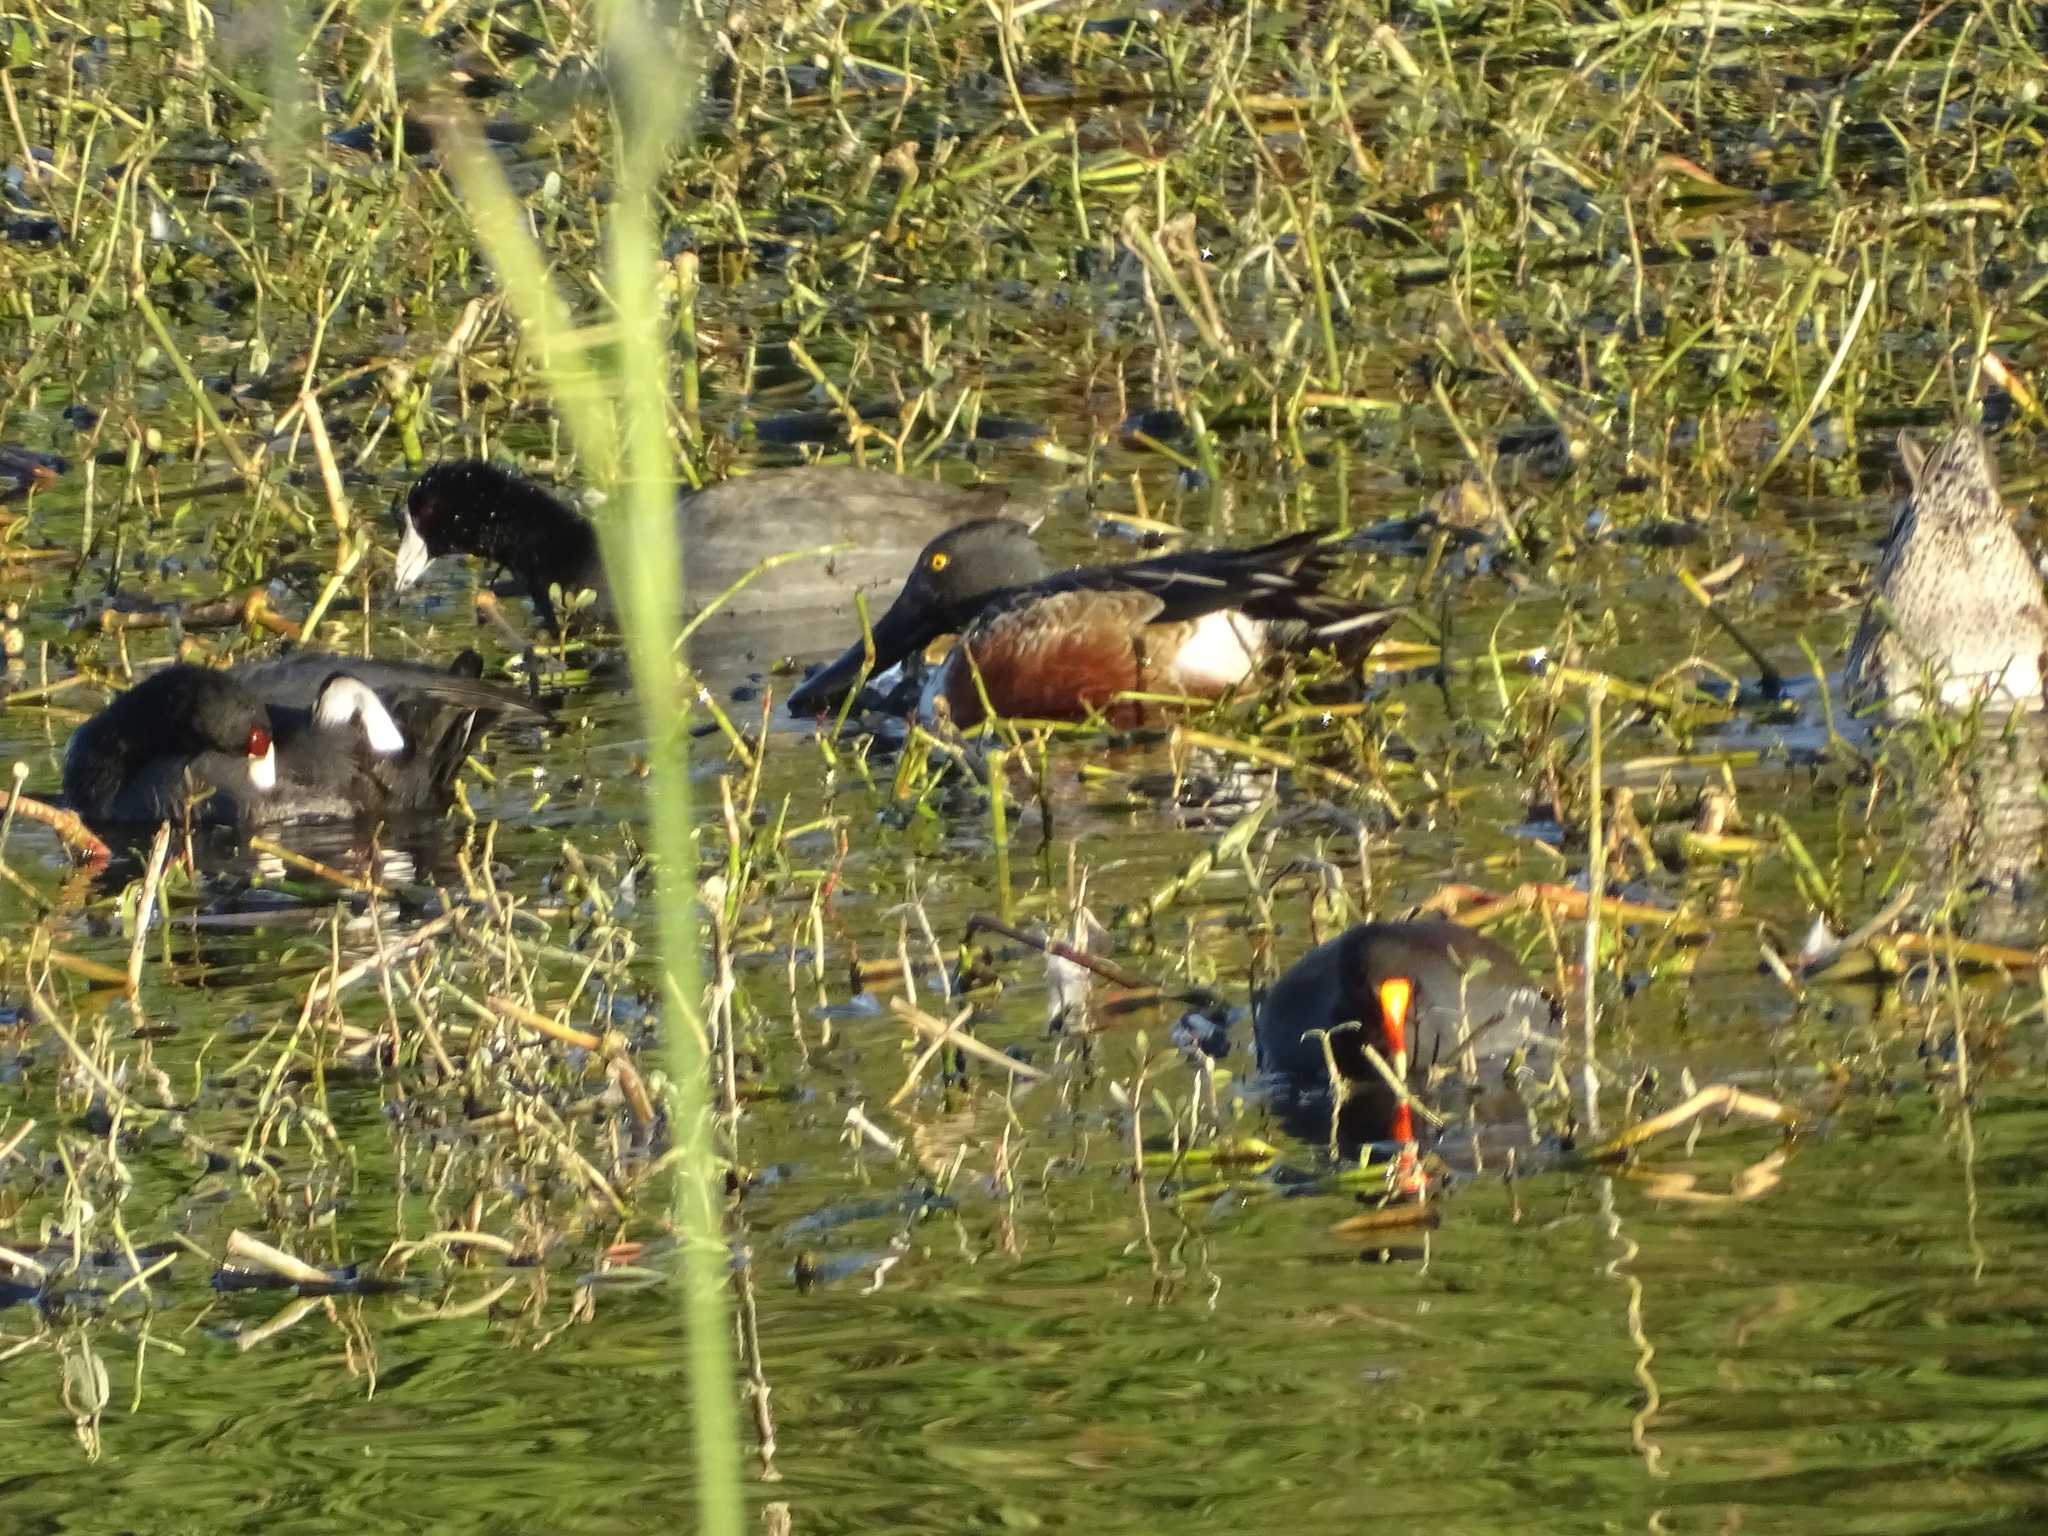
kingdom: Animalia
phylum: Chordata
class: Aves
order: Anseriformes
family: Anatidae
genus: Spatula
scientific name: Spatula clypeata
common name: Northern shoveler
